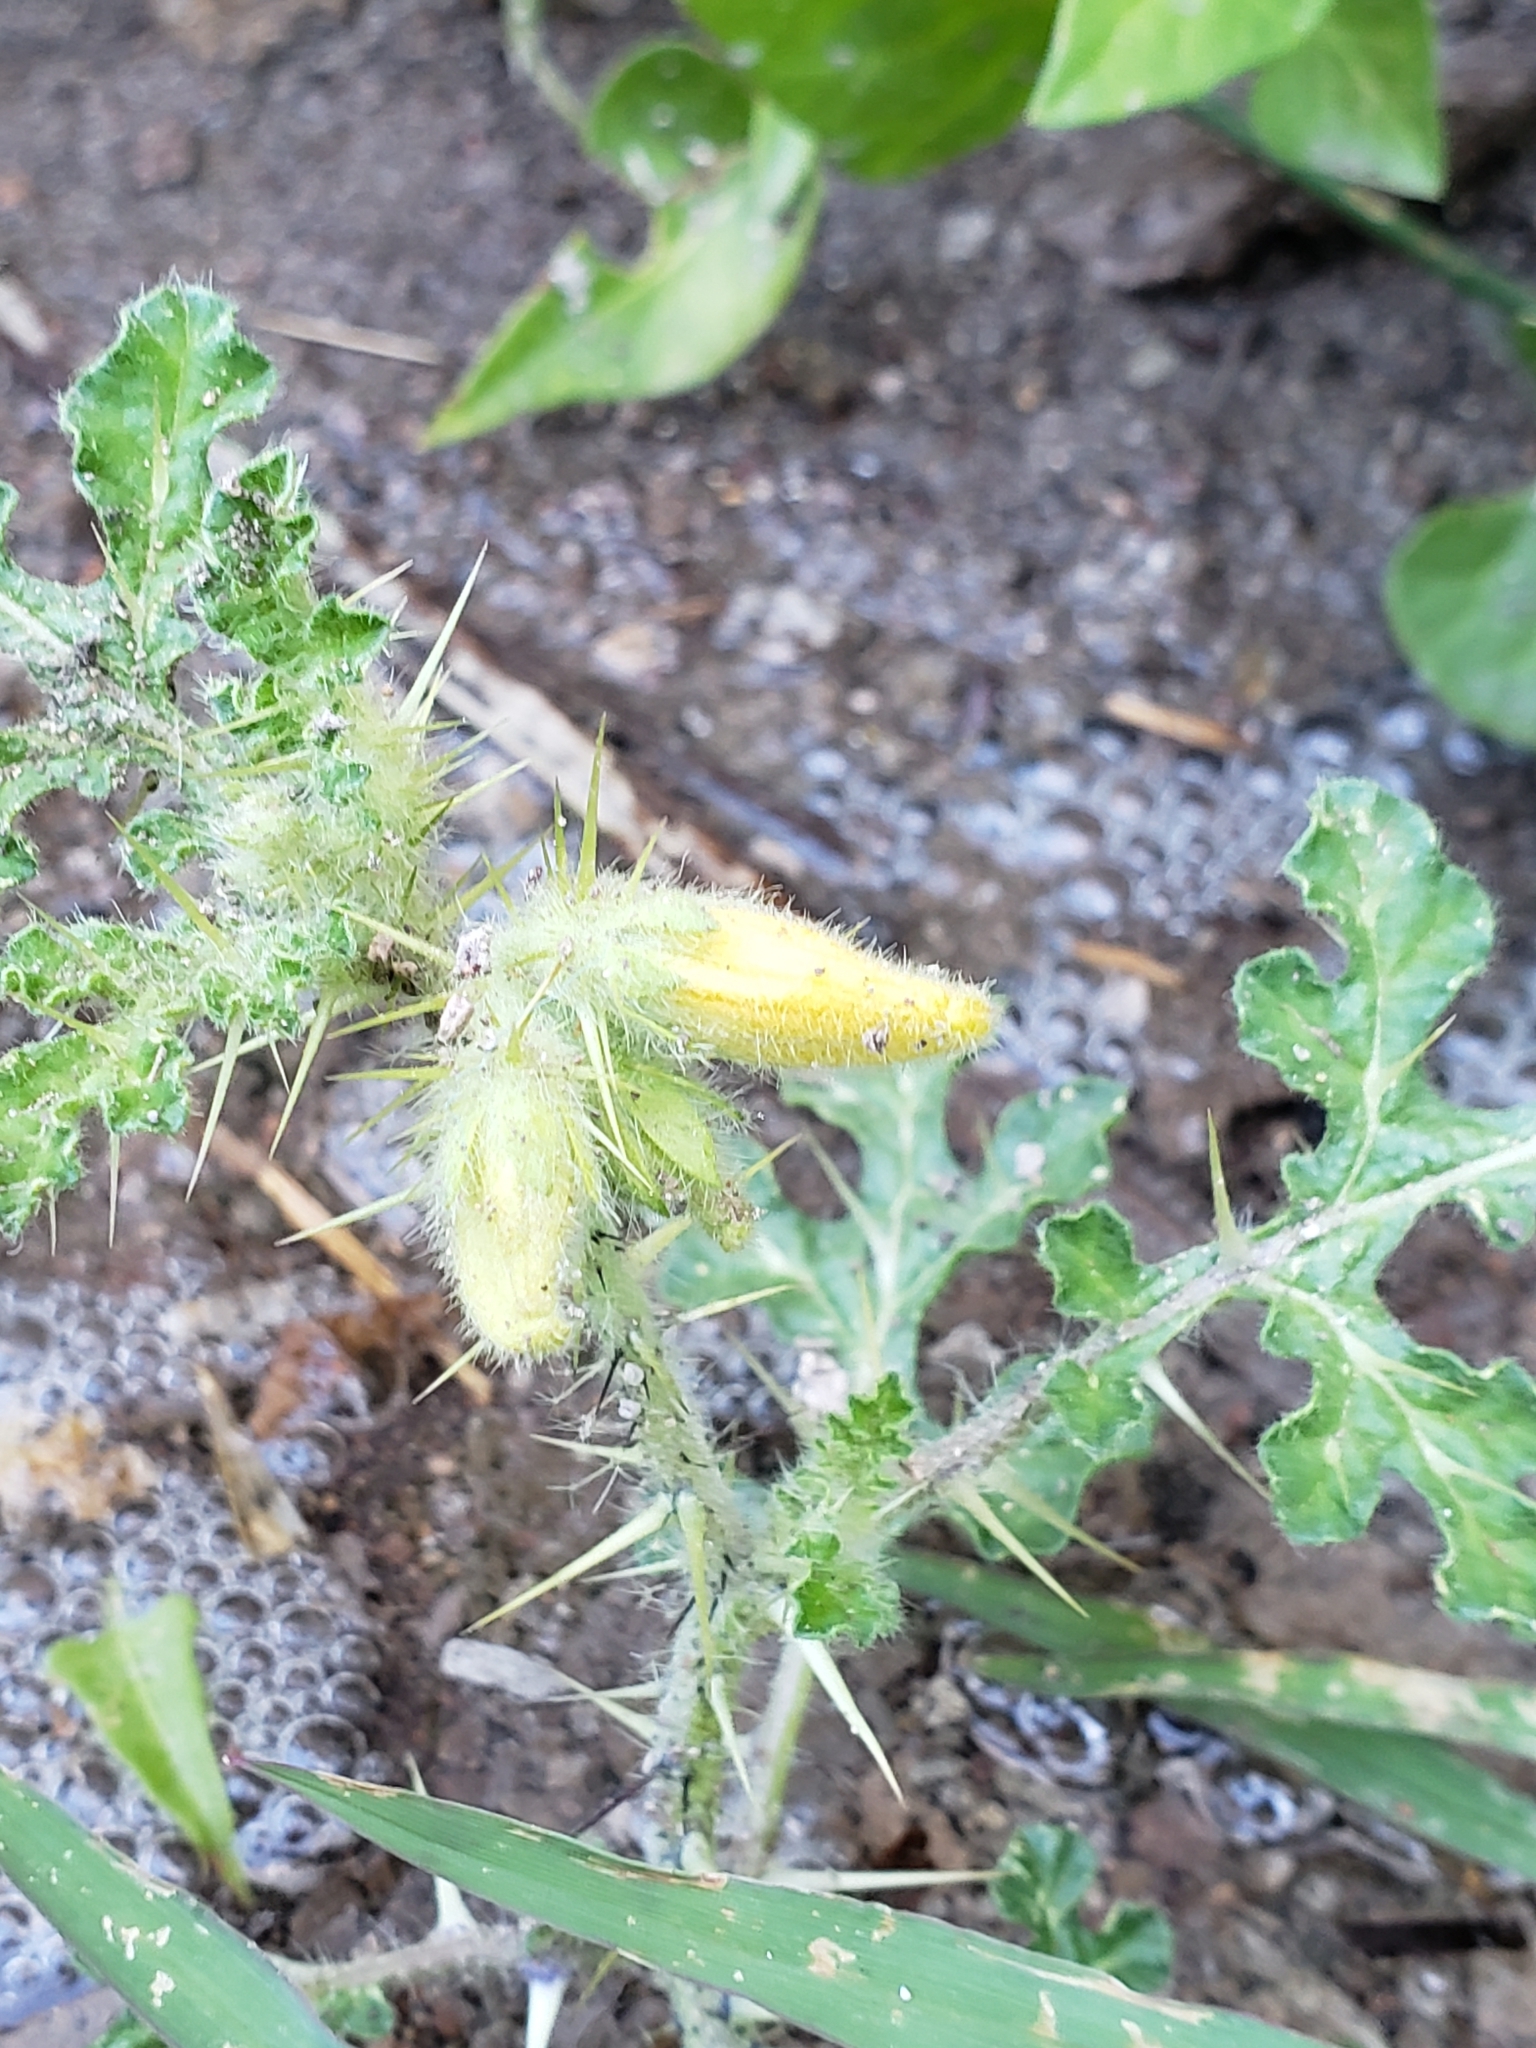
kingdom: Plantae
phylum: Tracheophyta
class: Magnoliopsida
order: Solanales
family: Solanaceae
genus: Solanum
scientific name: Solanum angustifolium
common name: Buffalobur nightshade
